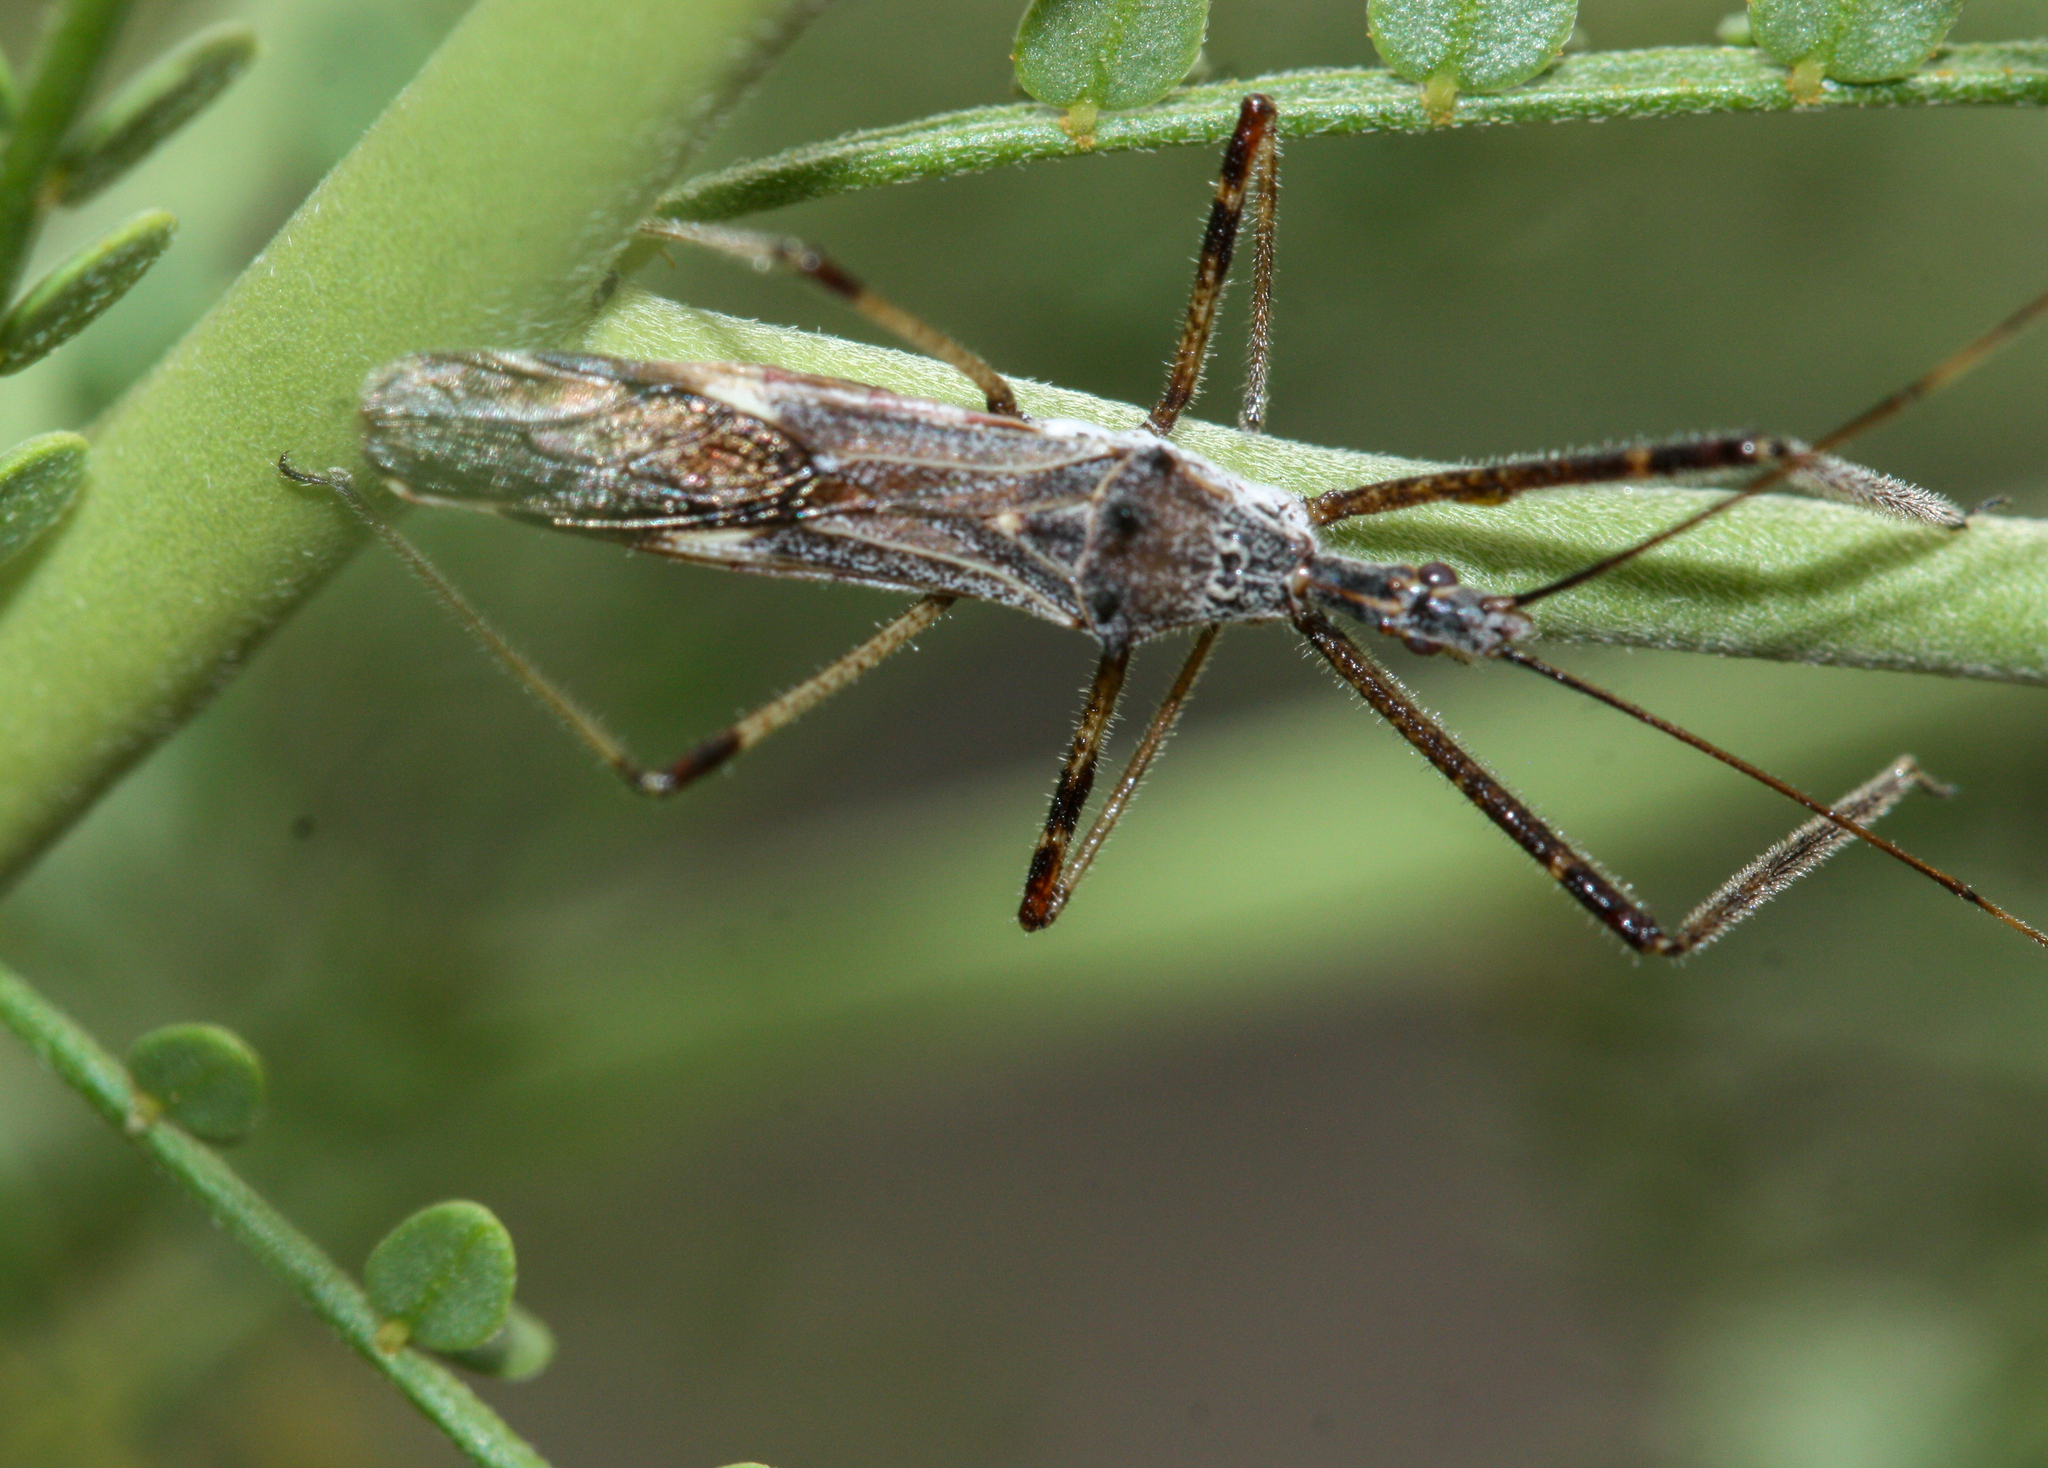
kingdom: Animalia
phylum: Arthropoda
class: Insecta
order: Hemiptera
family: Reduviidae
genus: Zelus
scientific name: Zelus tetracanthus
